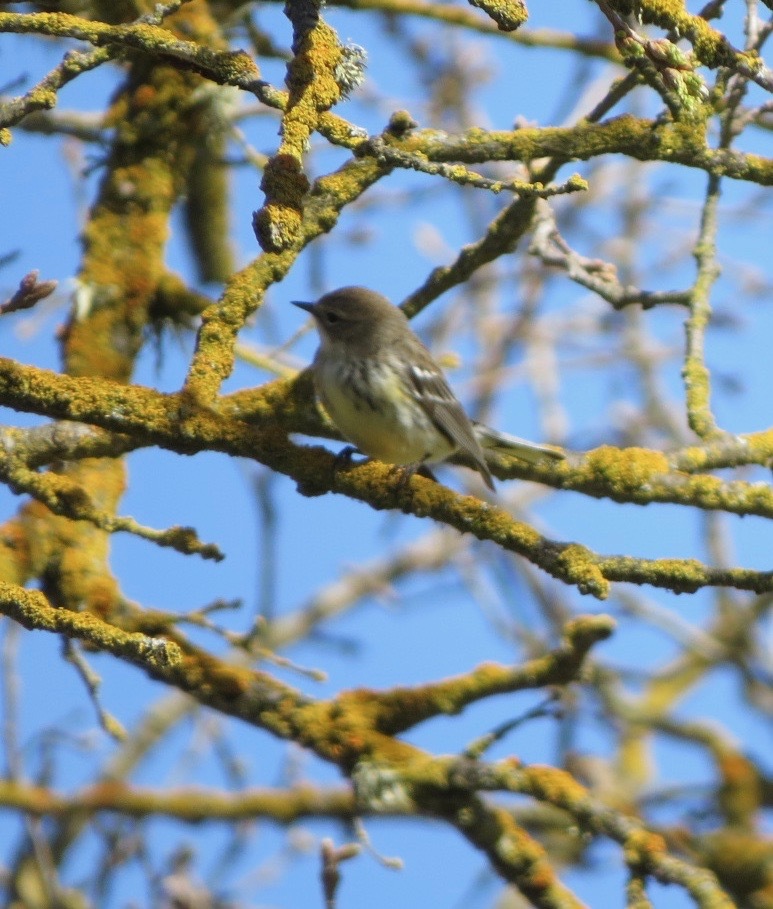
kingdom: Animalia
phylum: Chordata
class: Aves
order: Passeriformes
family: Parulidae
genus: Setophaga
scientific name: Setophaga coronata
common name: Myrtle warbler
